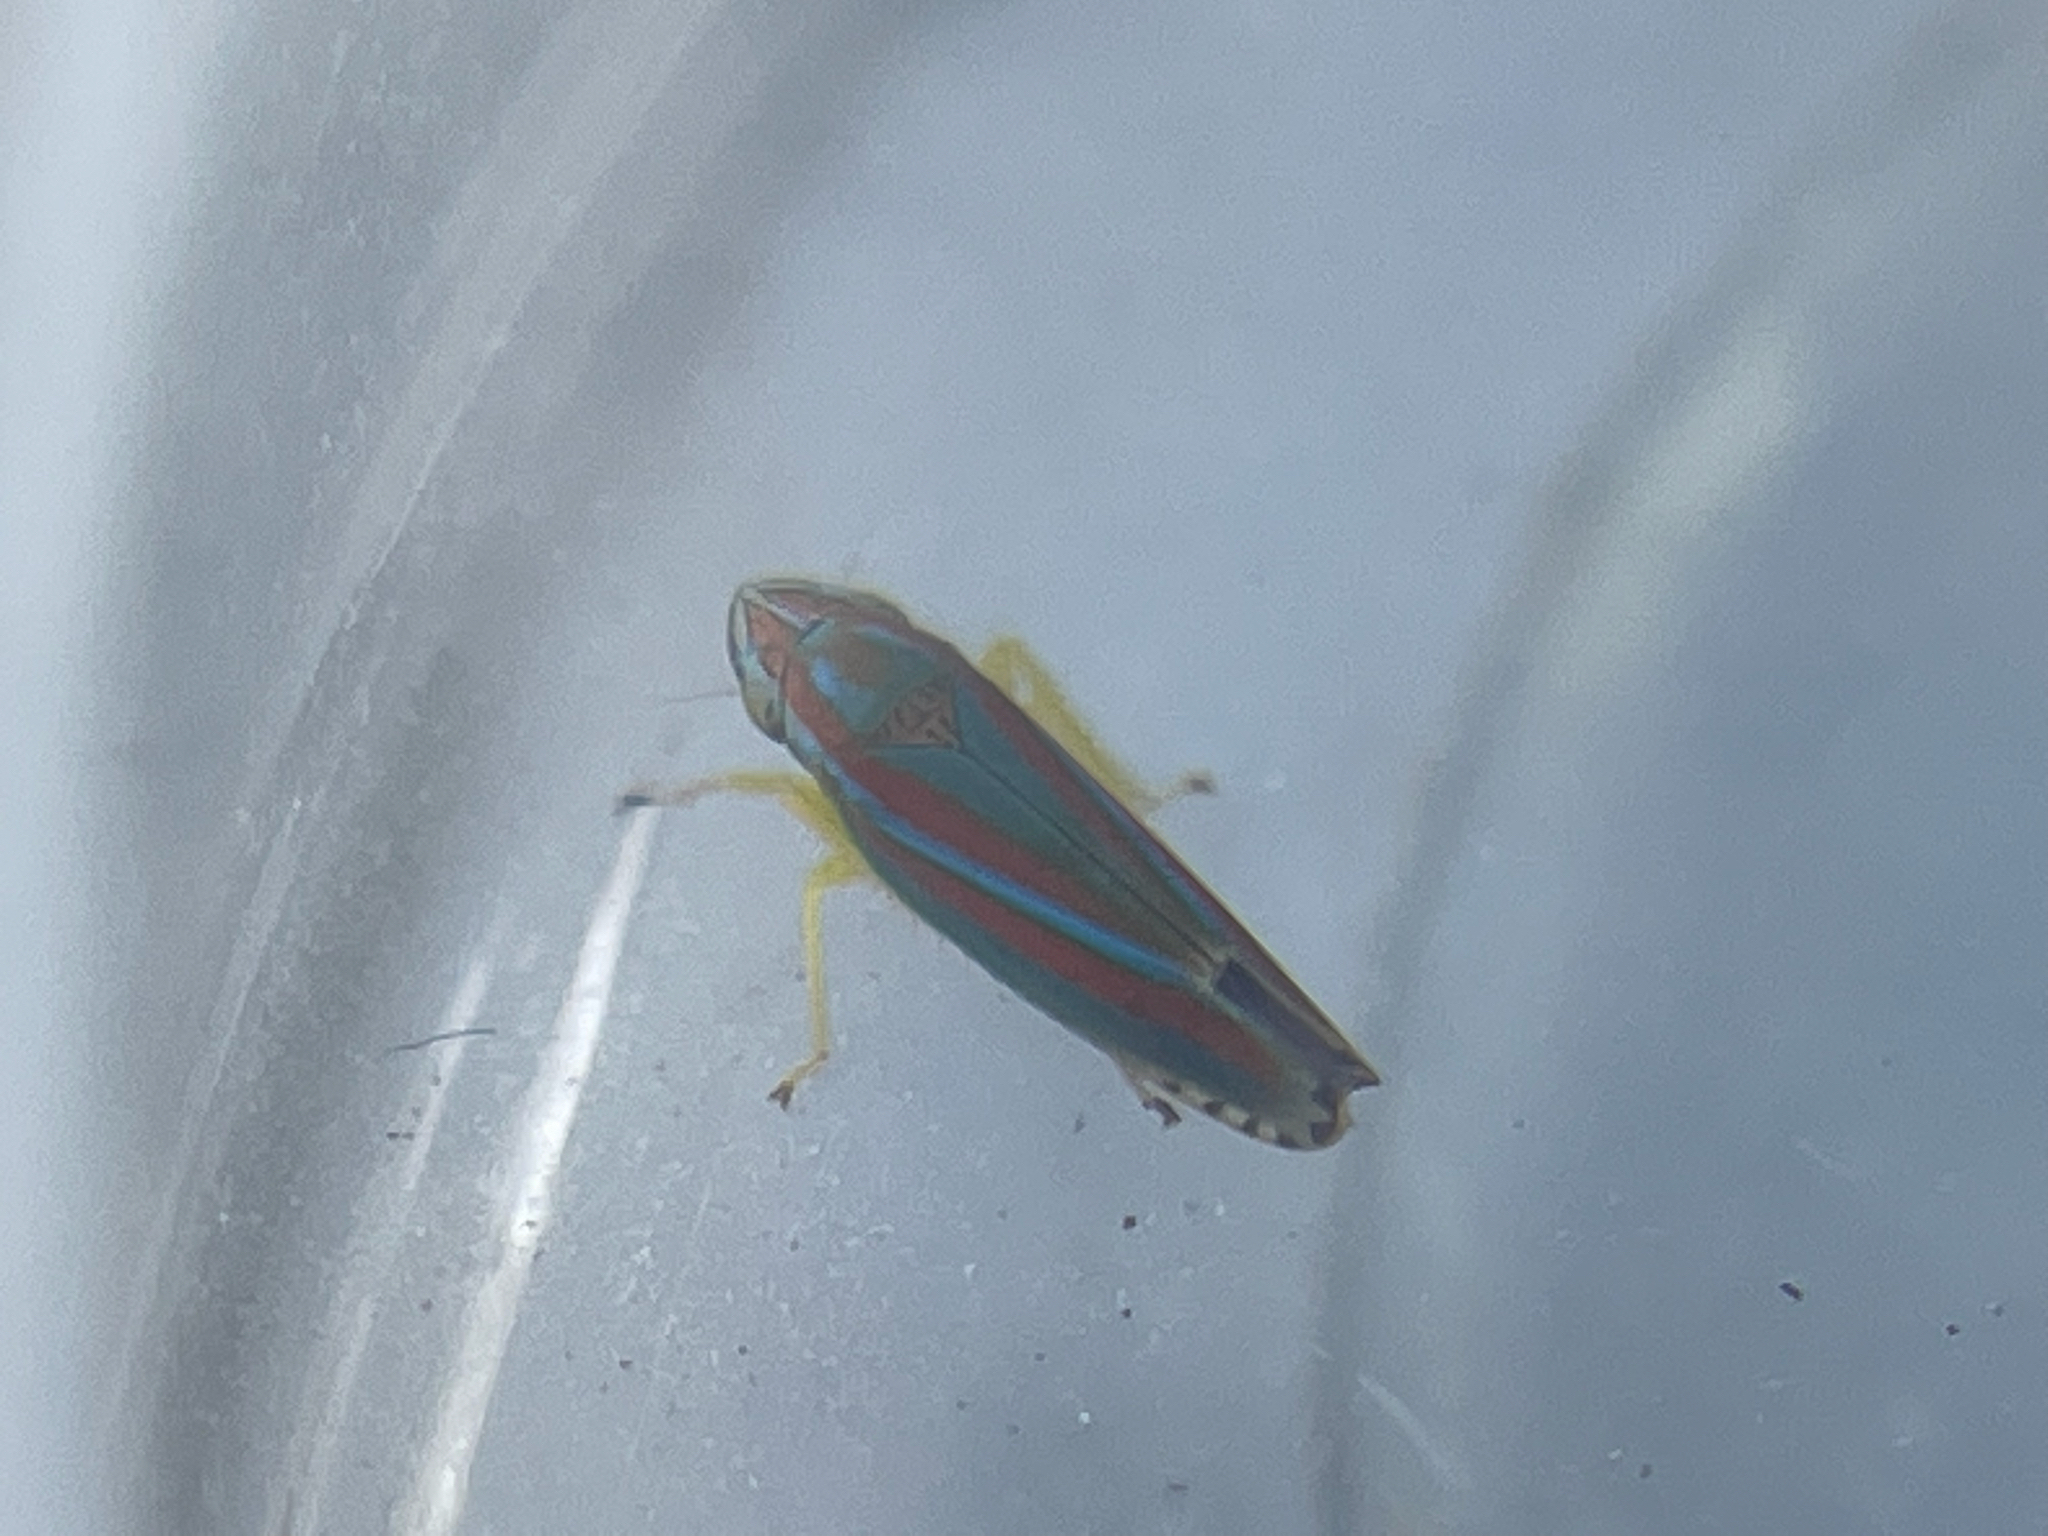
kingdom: Animalia
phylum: Arthropoda
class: Insecta
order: Hemiptera
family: Cicadellidae
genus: Graphocephala
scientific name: Graphocephala versuta
